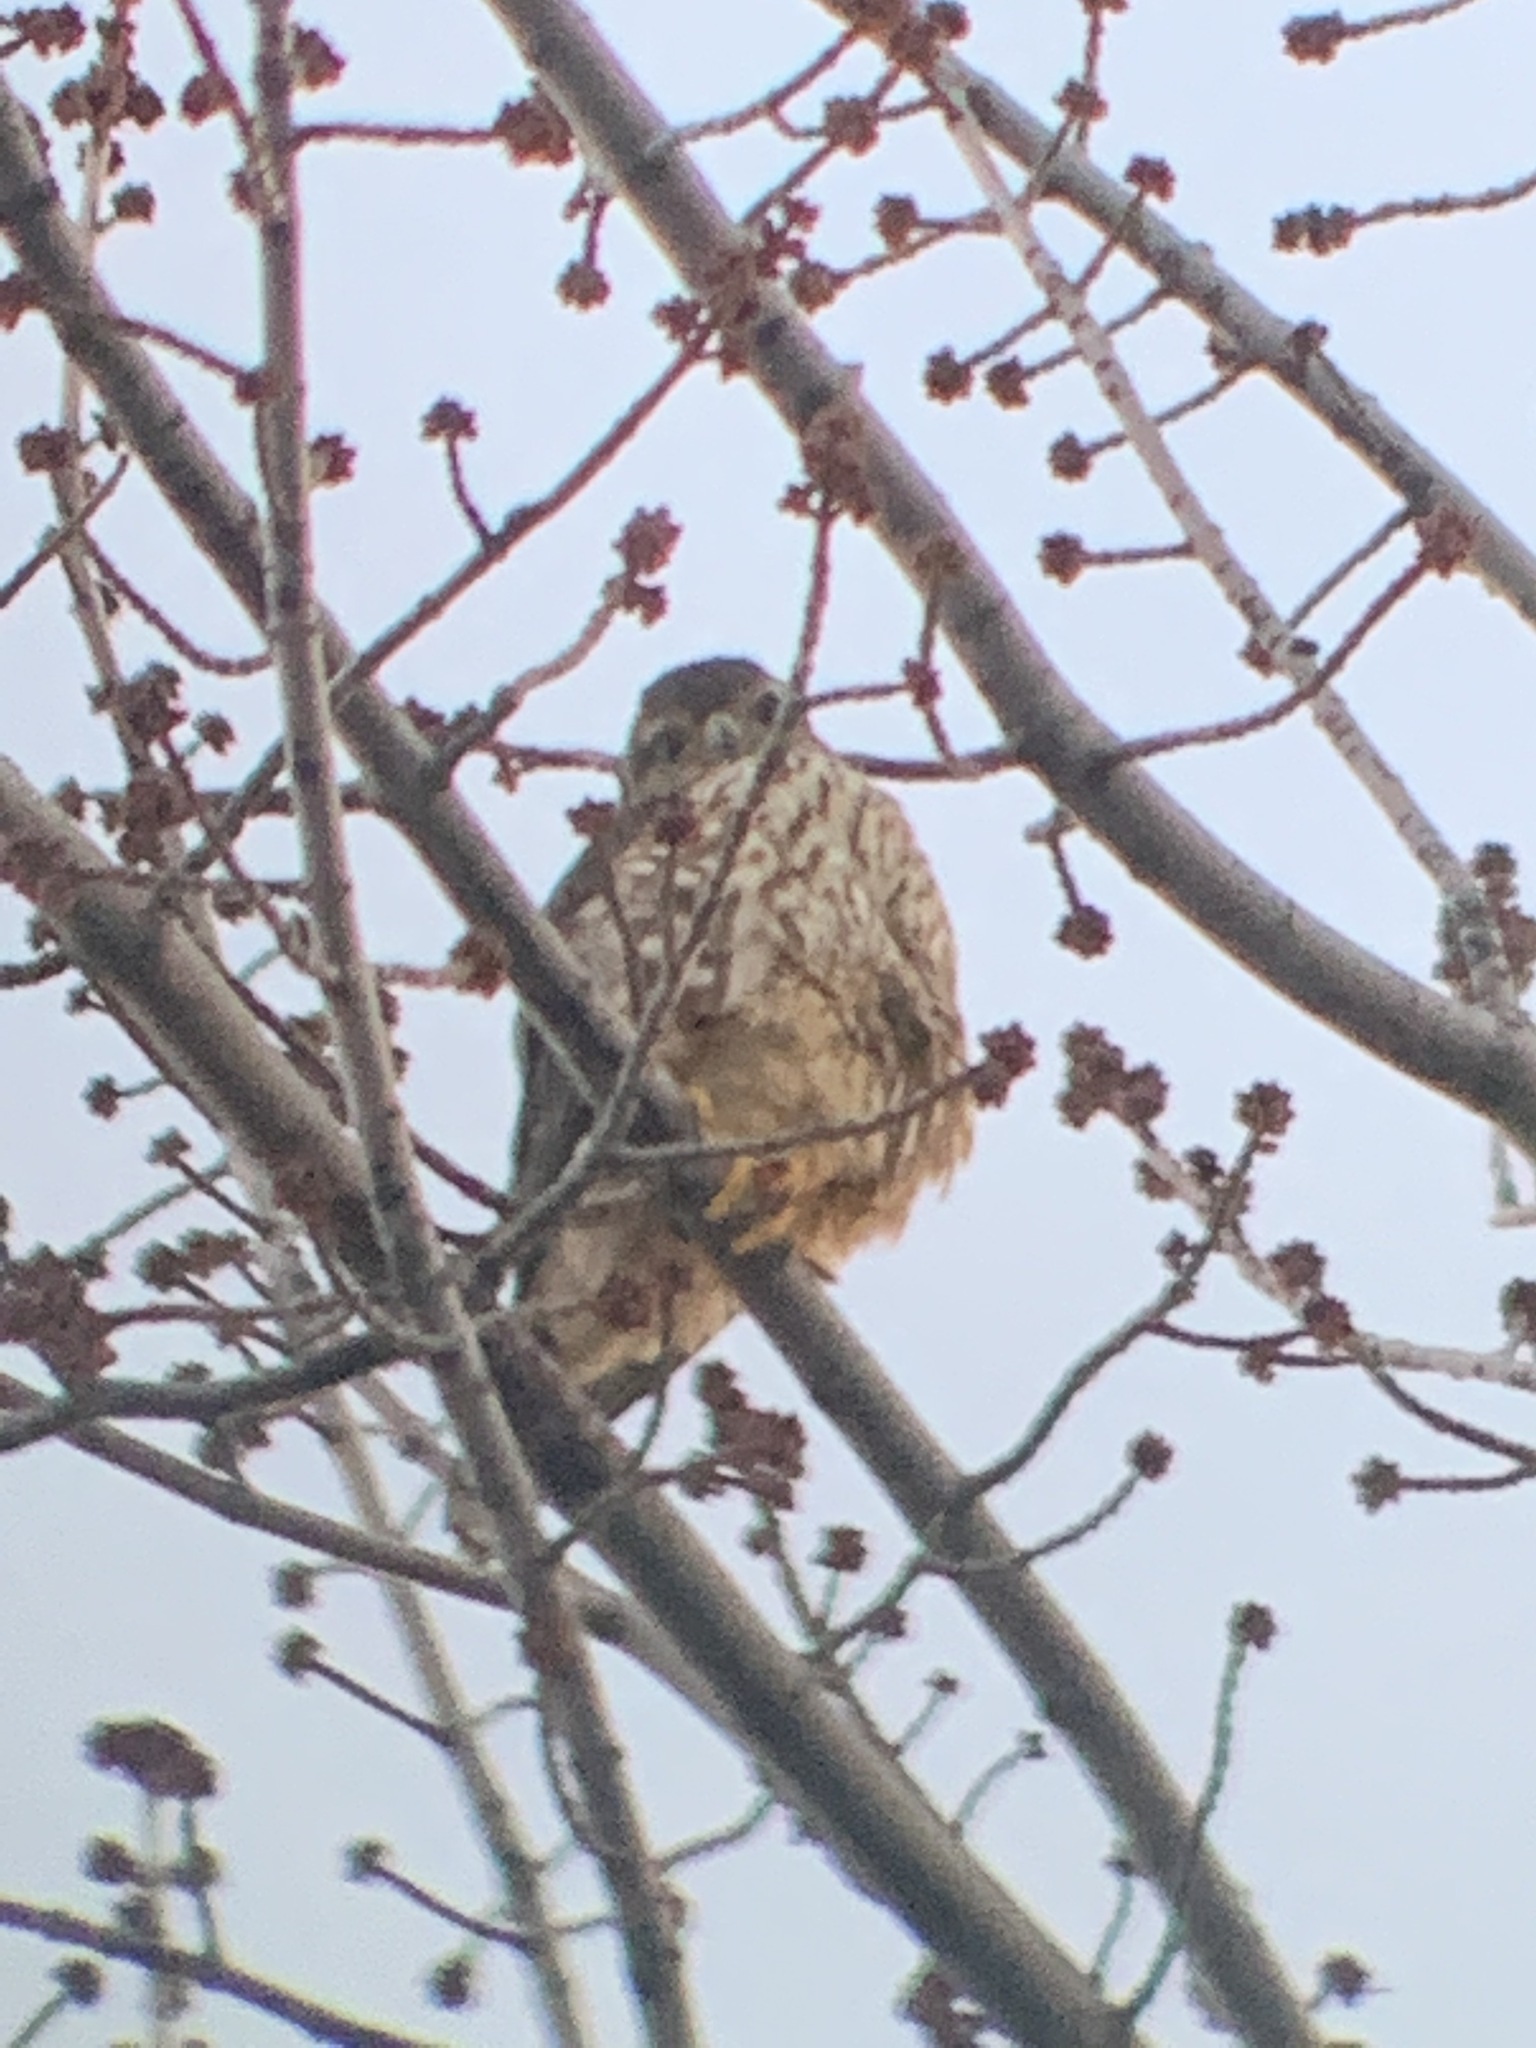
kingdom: Animalia
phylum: Chordata
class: Aves
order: Falconiformes
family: Falconidae
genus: Falco
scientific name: Falco columbarius
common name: Merlin
